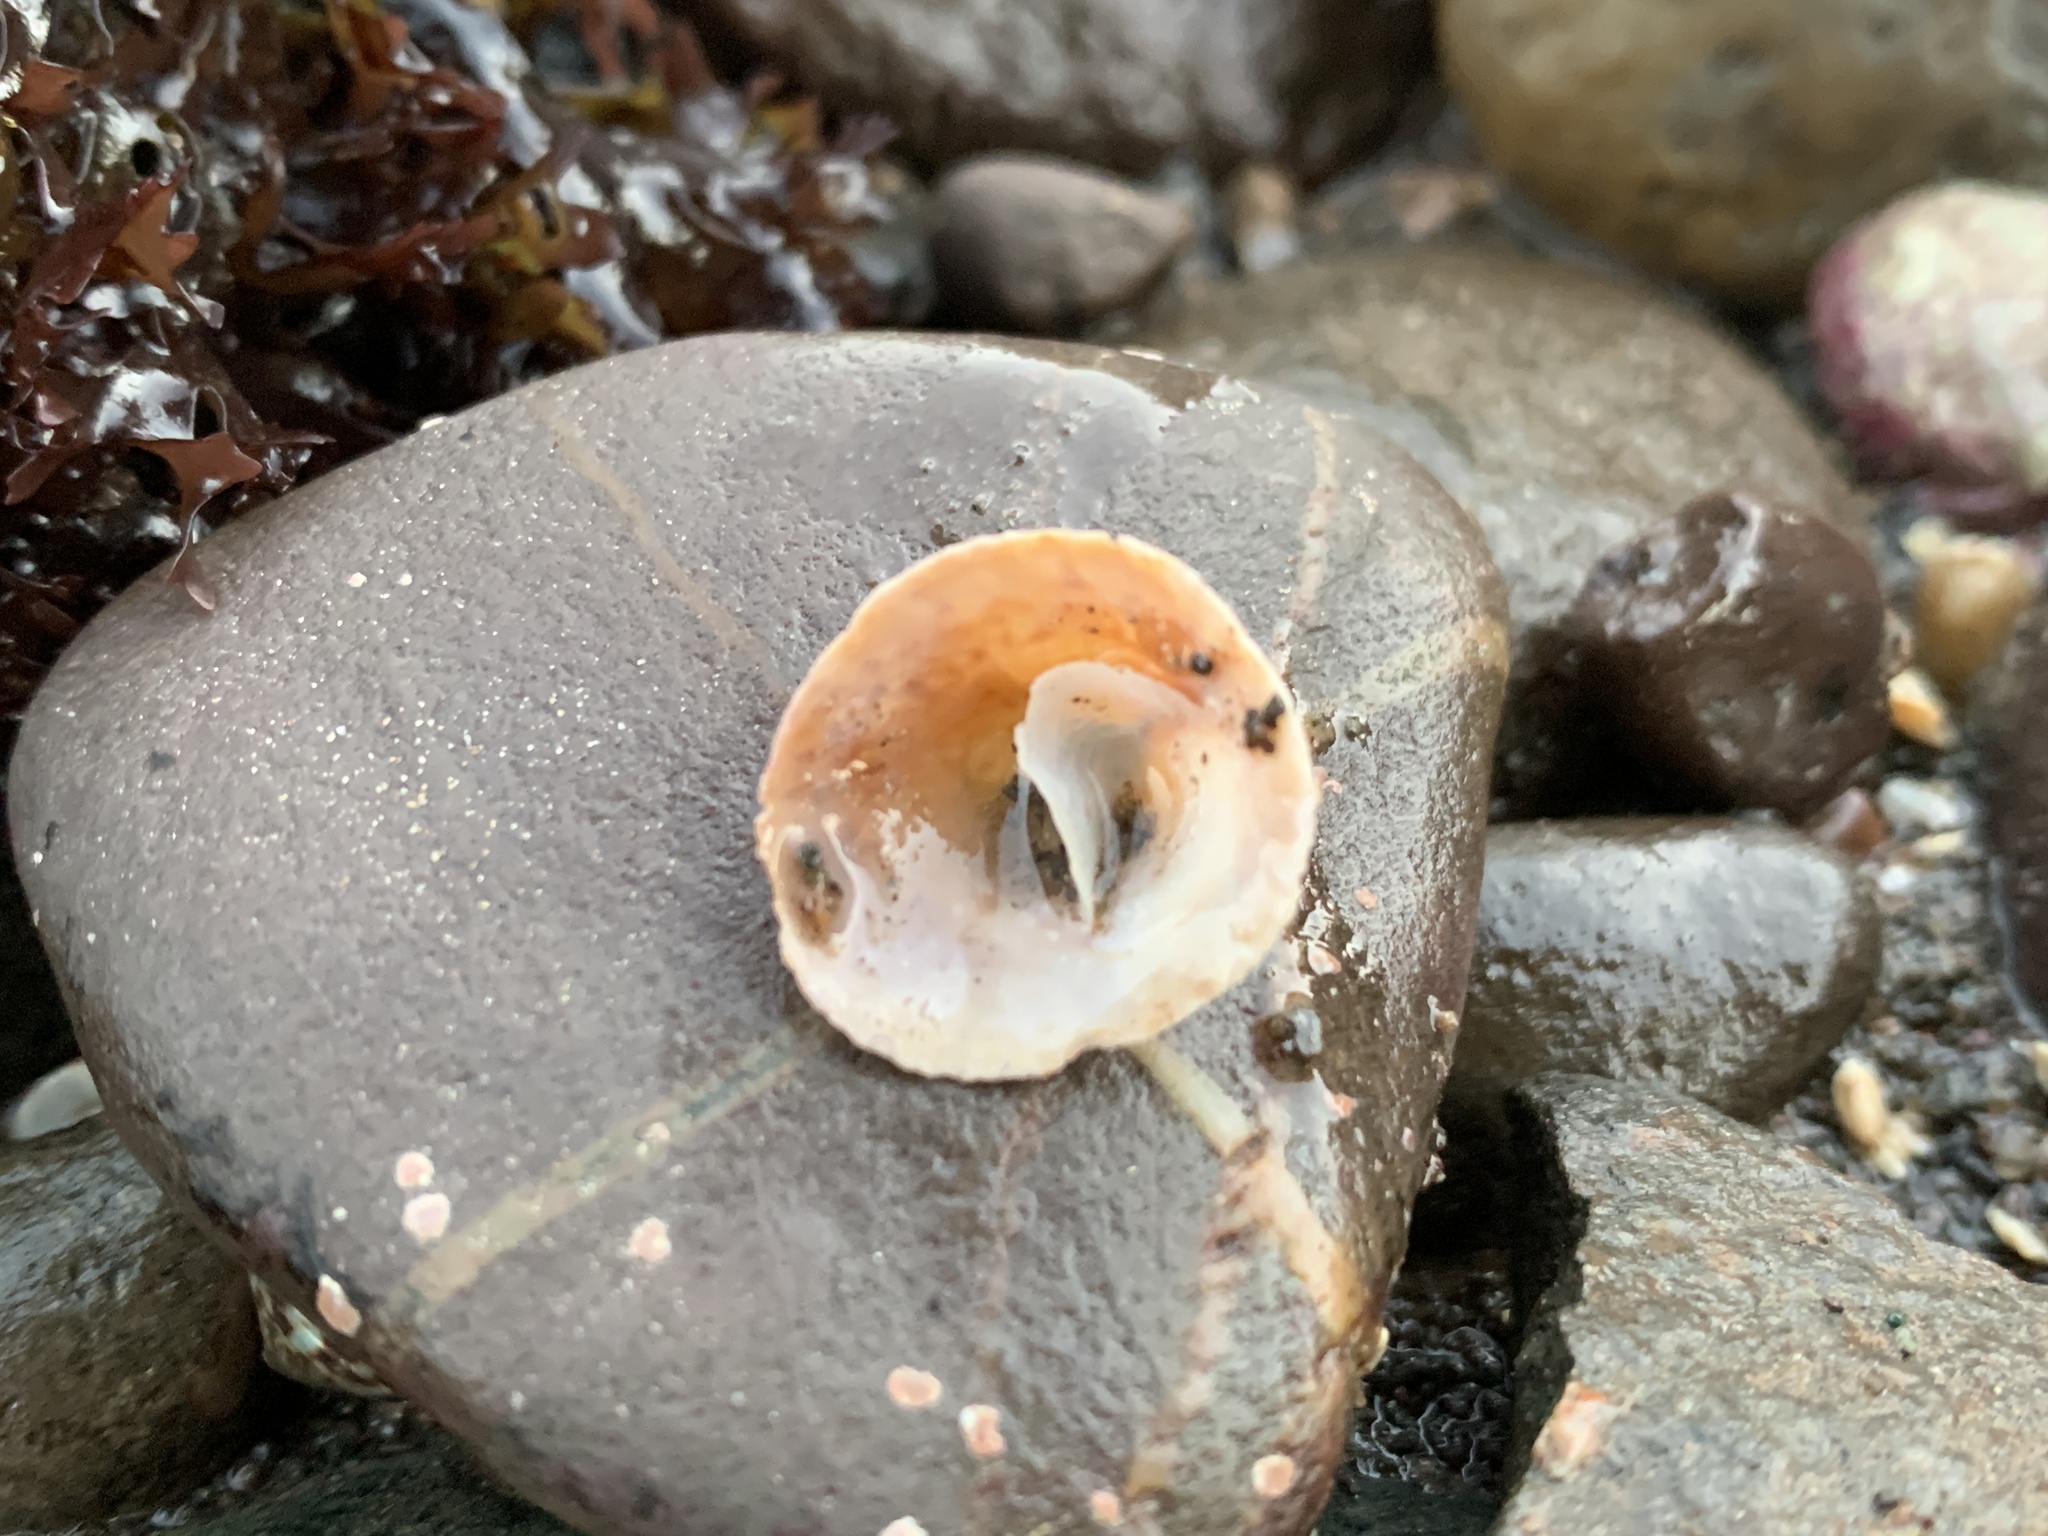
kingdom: Animalia
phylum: Mollusca
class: Gastropoda
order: Littorinimorpha
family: Calyptraeidae
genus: Crucibulum
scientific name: Crucibulum striatum
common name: Striate cup-and -saucer
